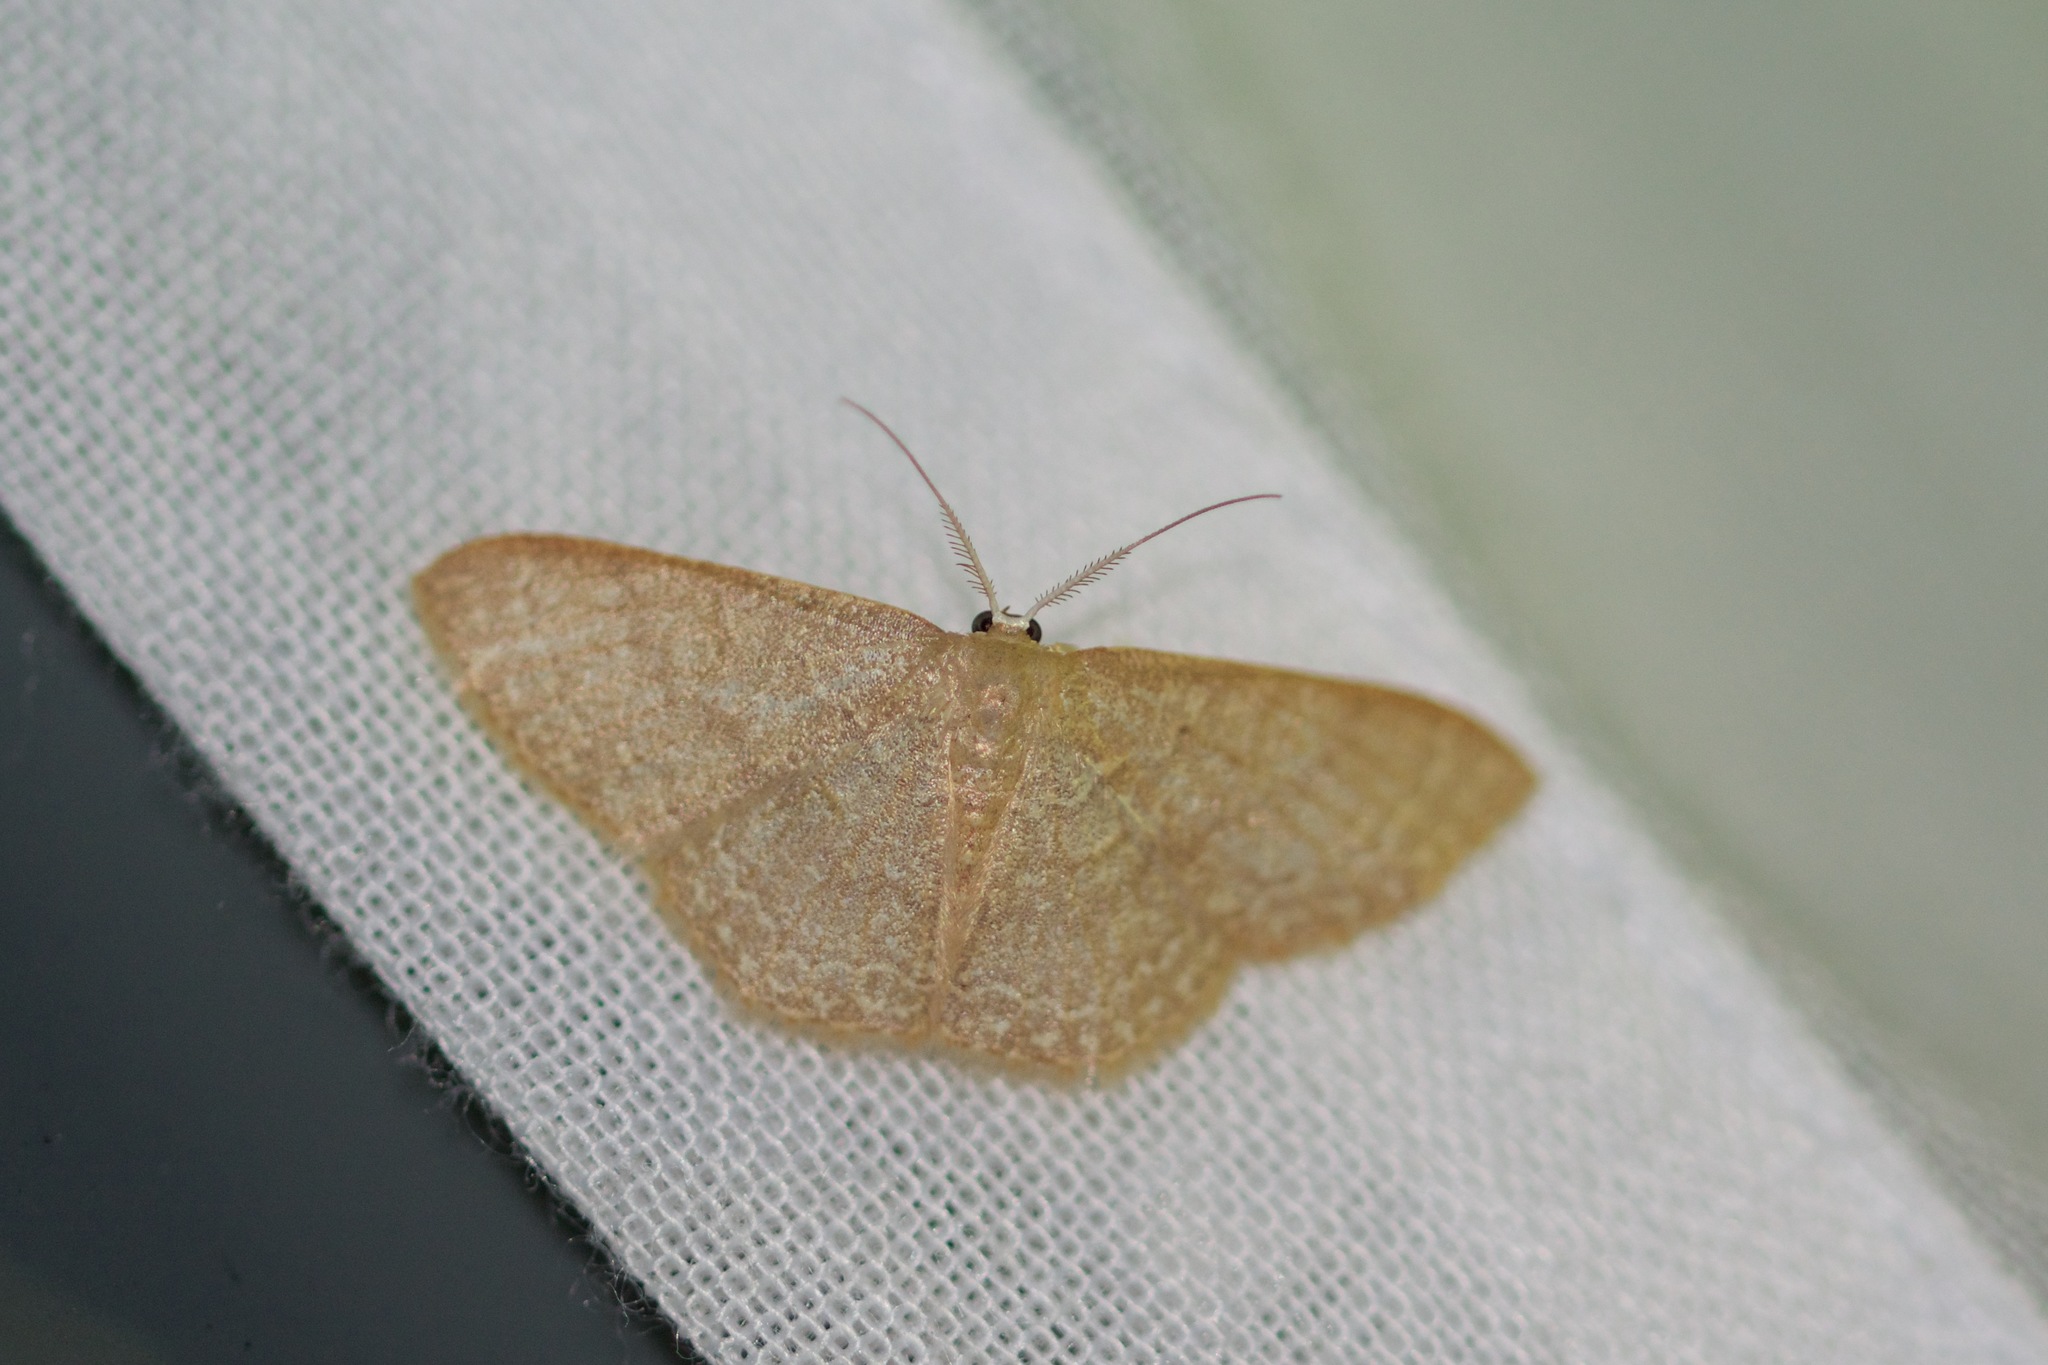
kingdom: Animalia
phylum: Arthropoda
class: Insecta
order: Lepidoptera
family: Geometridae
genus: Pleuroprucha
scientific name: Pleuroprucha insulsaria
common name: Common tan wave
